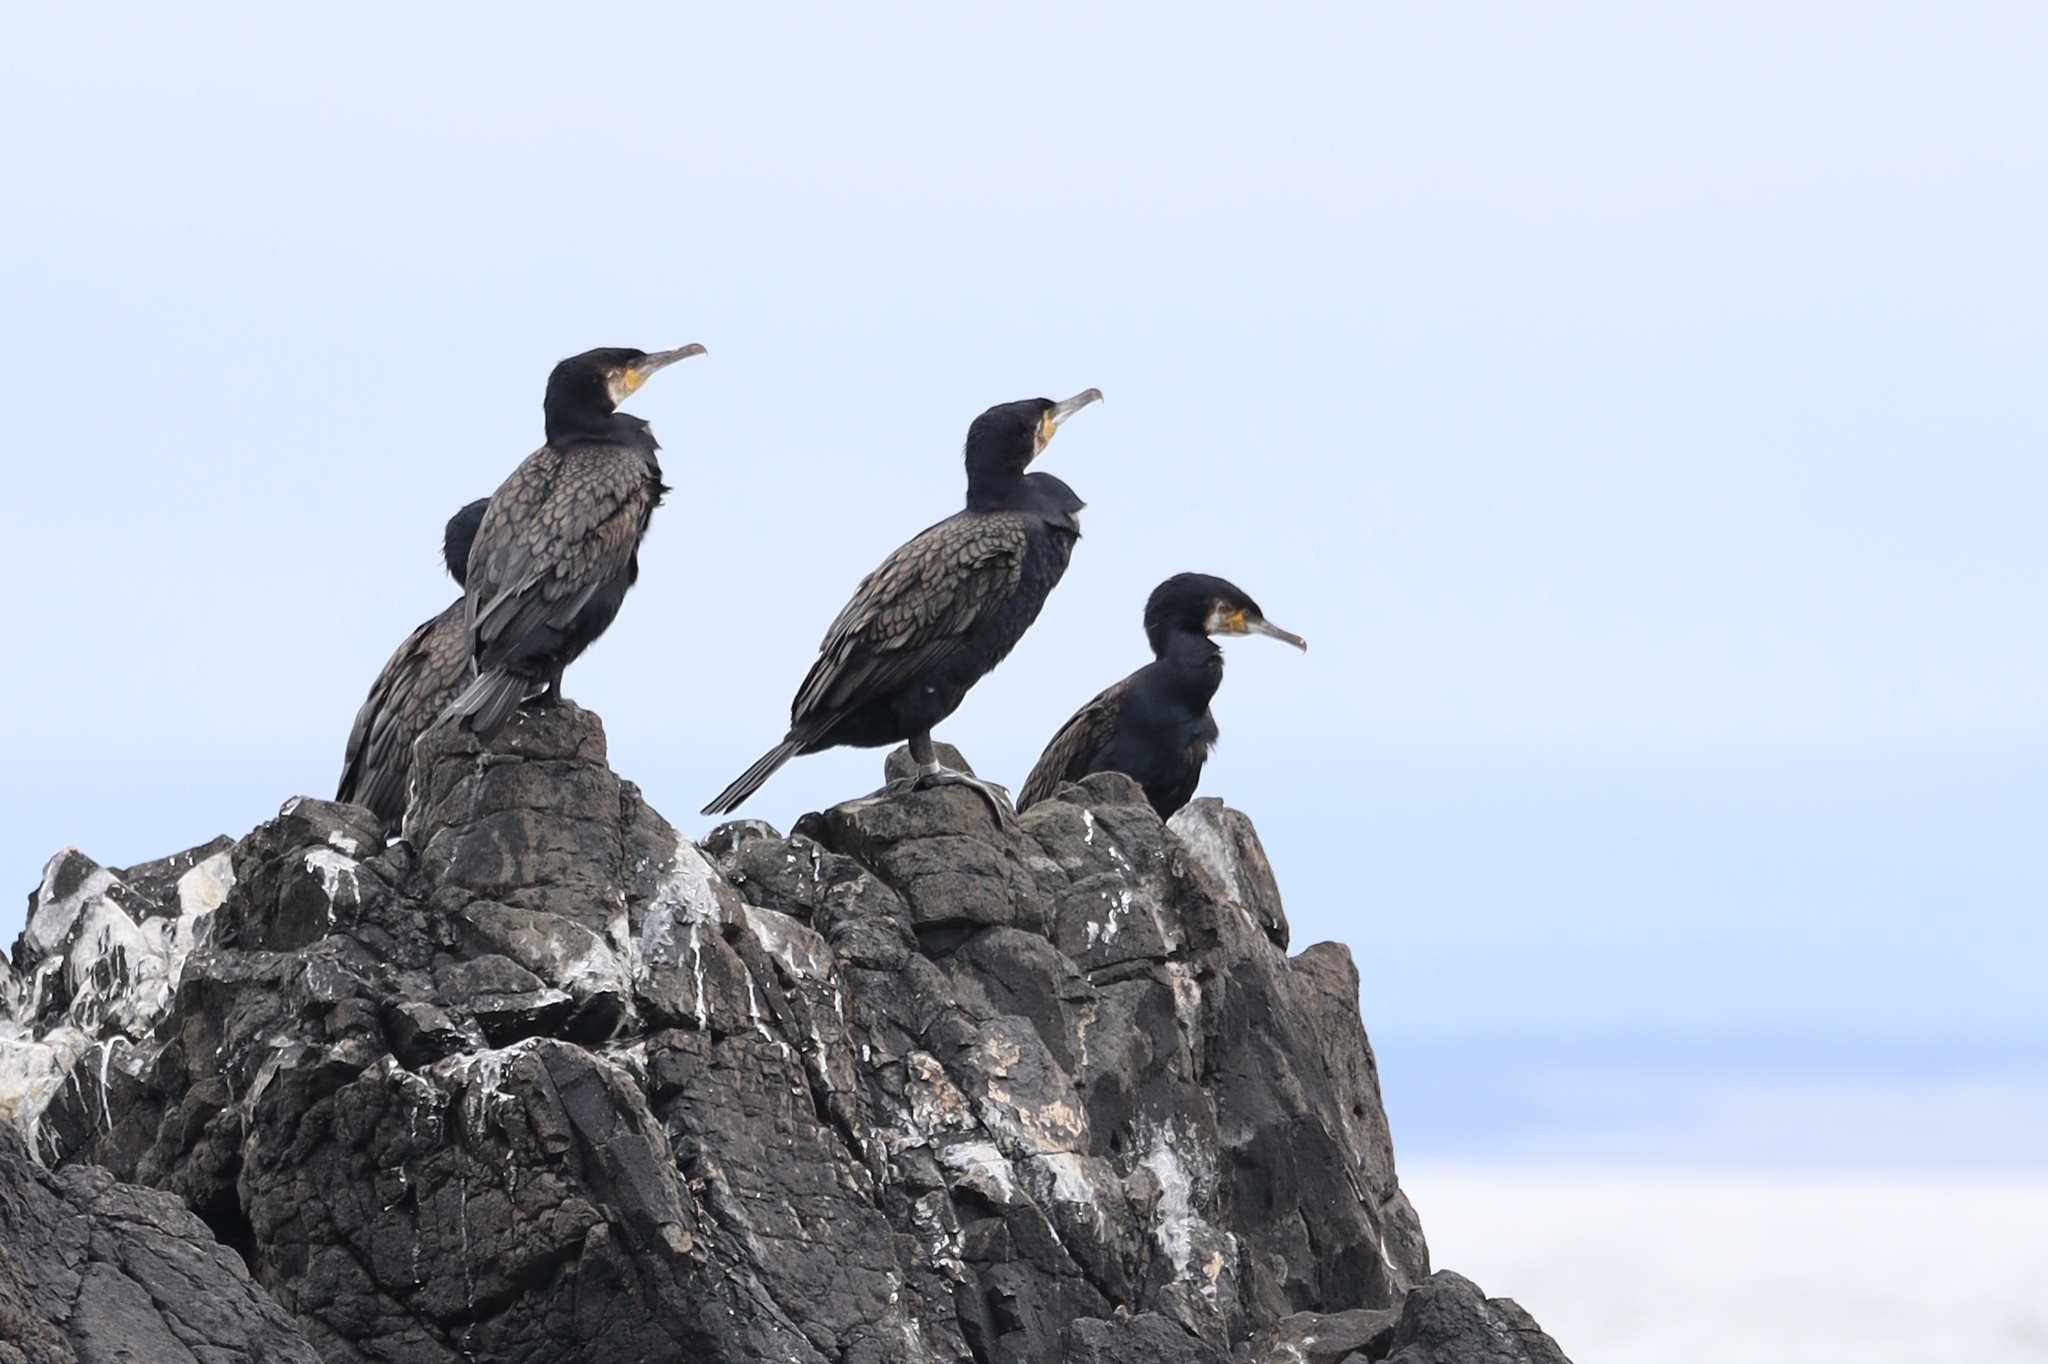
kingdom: Animalia
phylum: Chordata
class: Aves
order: Suliformes
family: Phalacrocoracidae
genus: Phalacrocorax
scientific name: Phalacrocorax carbo
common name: Great cormorant
